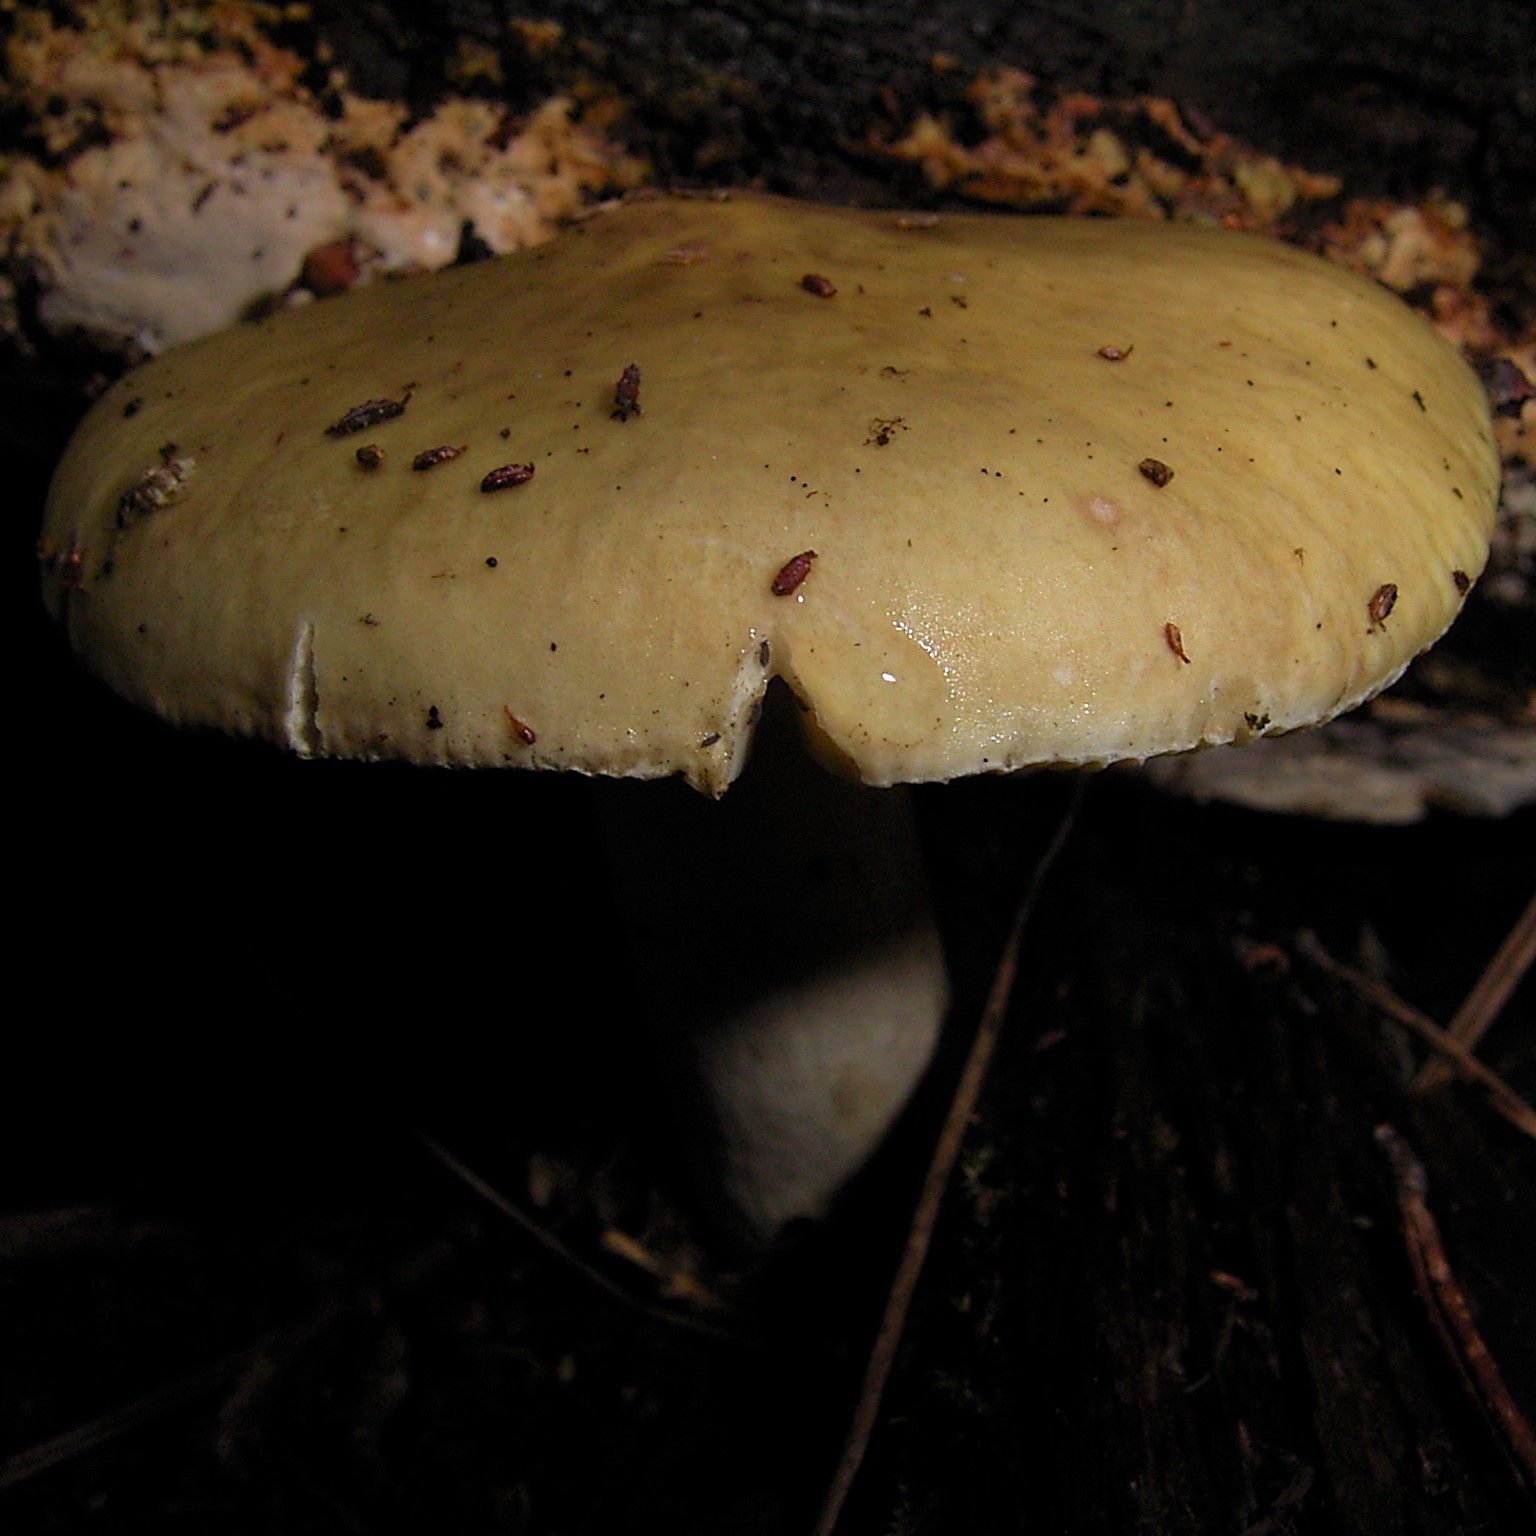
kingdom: Fungi
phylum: Basidiomycota
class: Agaricomycetes
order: Agaricales
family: Amanitaceae
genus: Amanita
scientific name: Amanita phalloides
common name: Death cap
